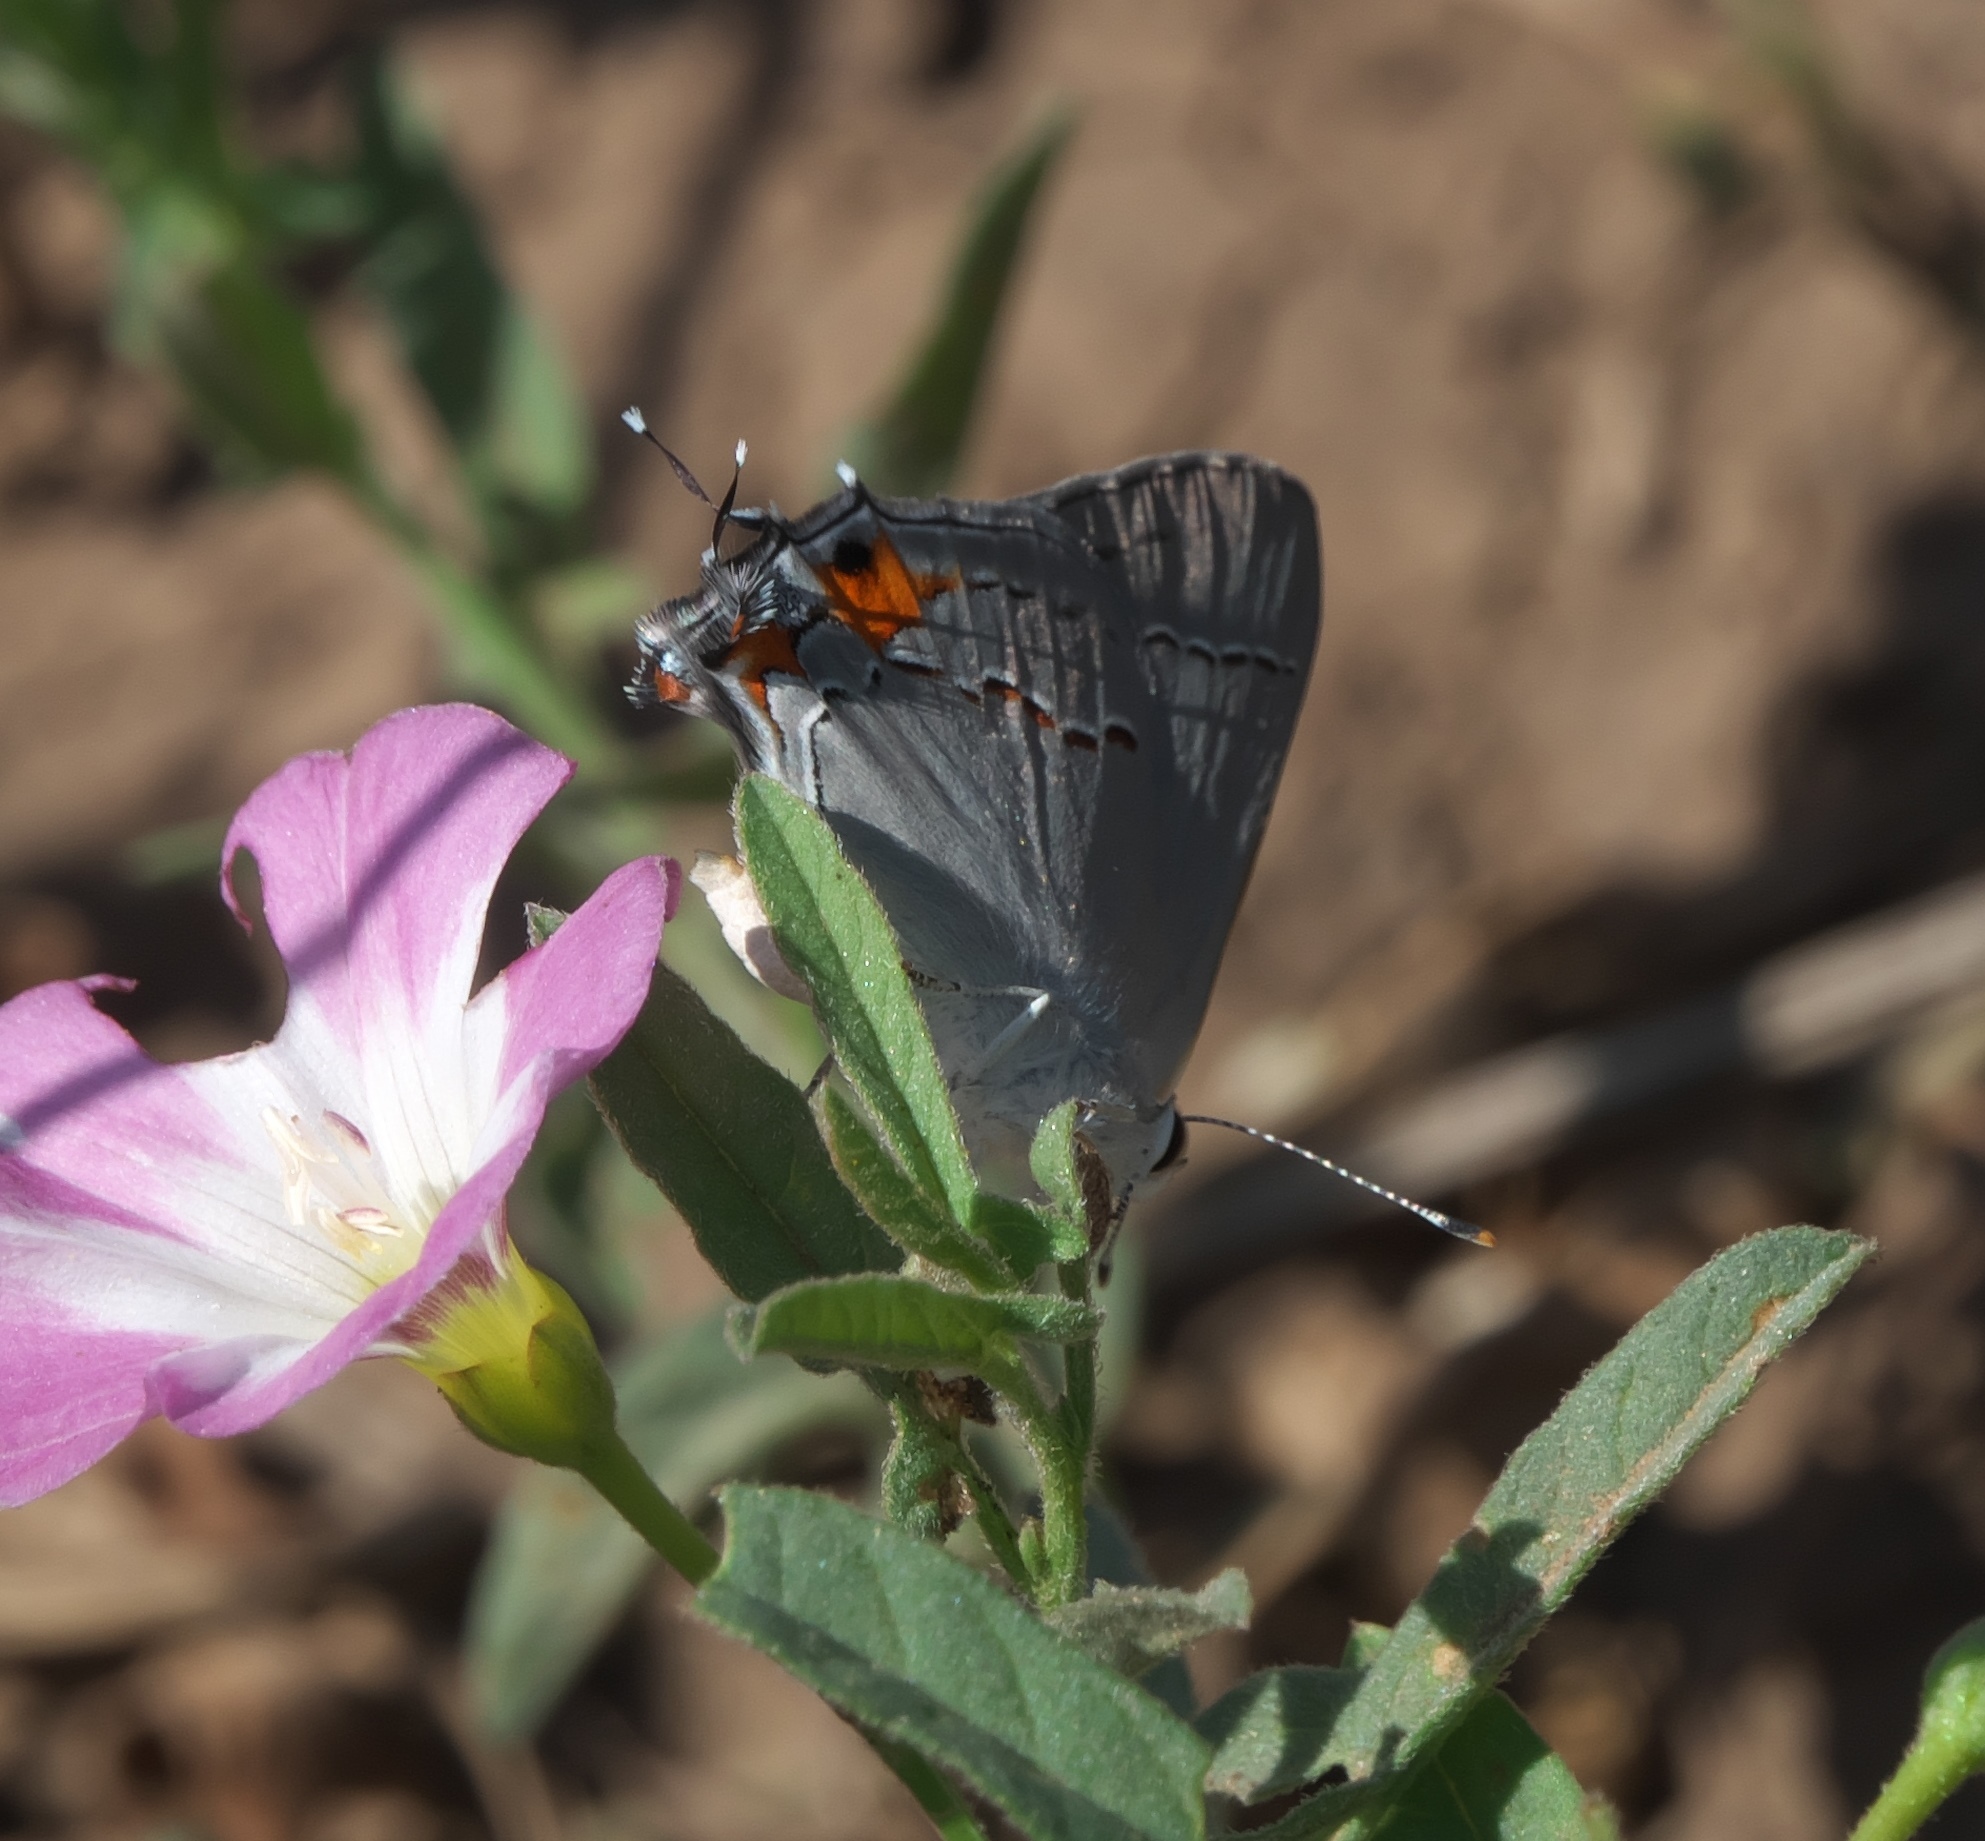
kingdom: Animalia
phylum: Arthropoda
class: Insecta
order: Lepidoptera
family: Lycaenidae
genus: Strymon
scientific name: Strymon melinus
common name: Gray hairstreak
